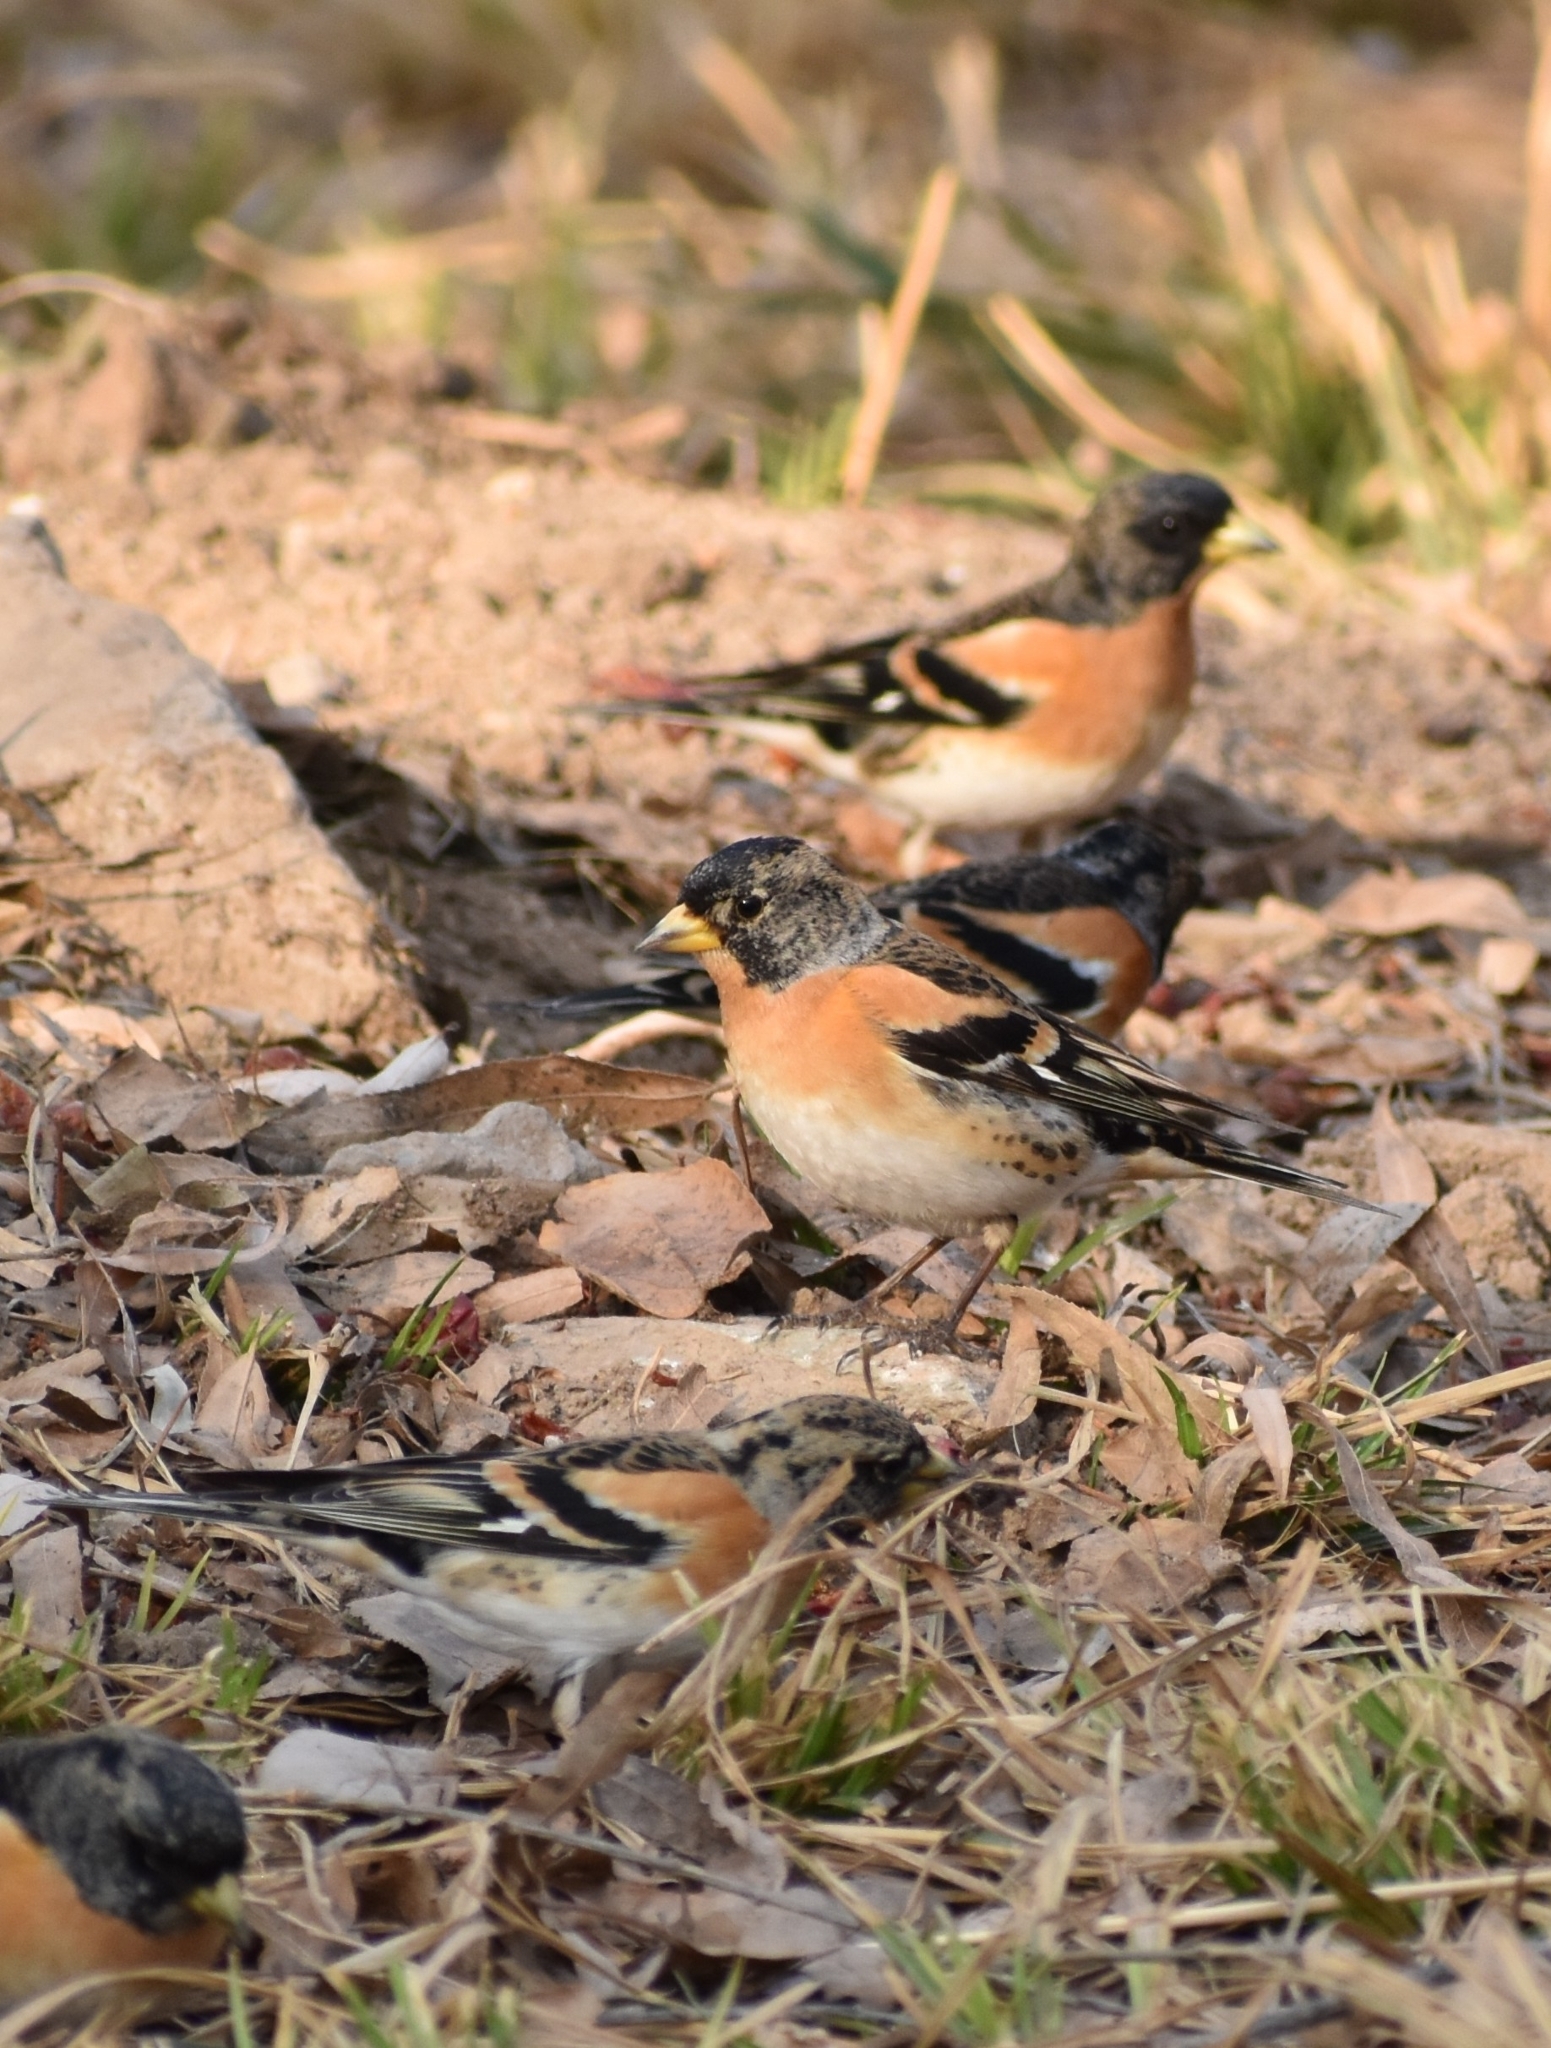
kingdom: Animalia
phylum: Chordata
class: Aves
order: Passeriformes
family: Fringillidae
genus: Fringilla
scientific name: Fringilla montifringilla
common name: Brambling
